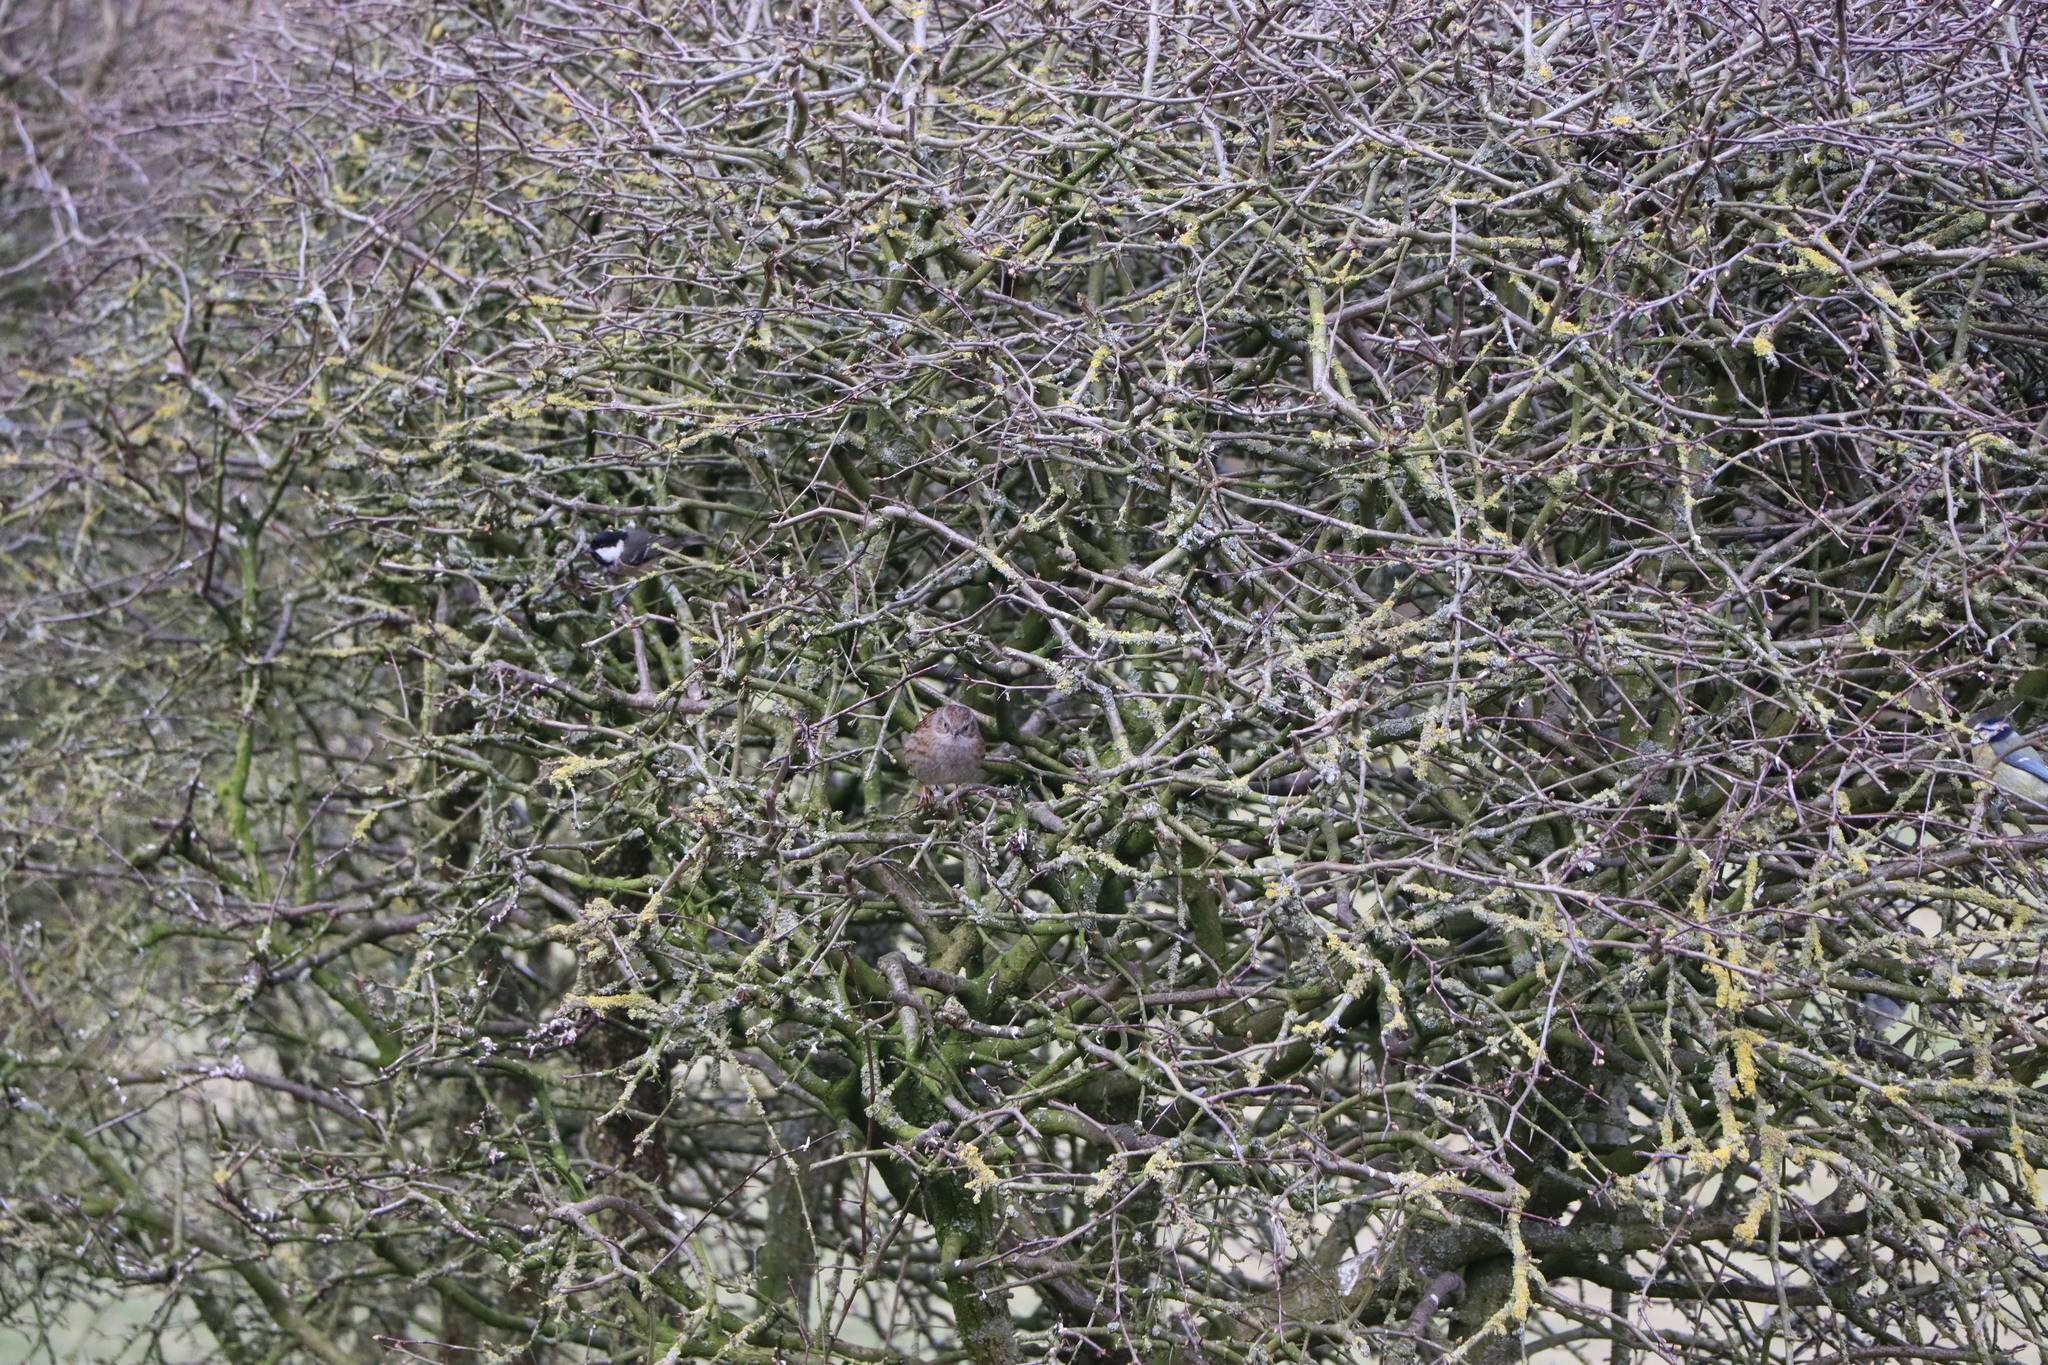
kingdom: Animalia
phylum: Chordata
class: Aves
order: Passeriformes
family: Prunellidae
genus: Prunella
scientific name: Prunella modularis
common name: Dunnock
